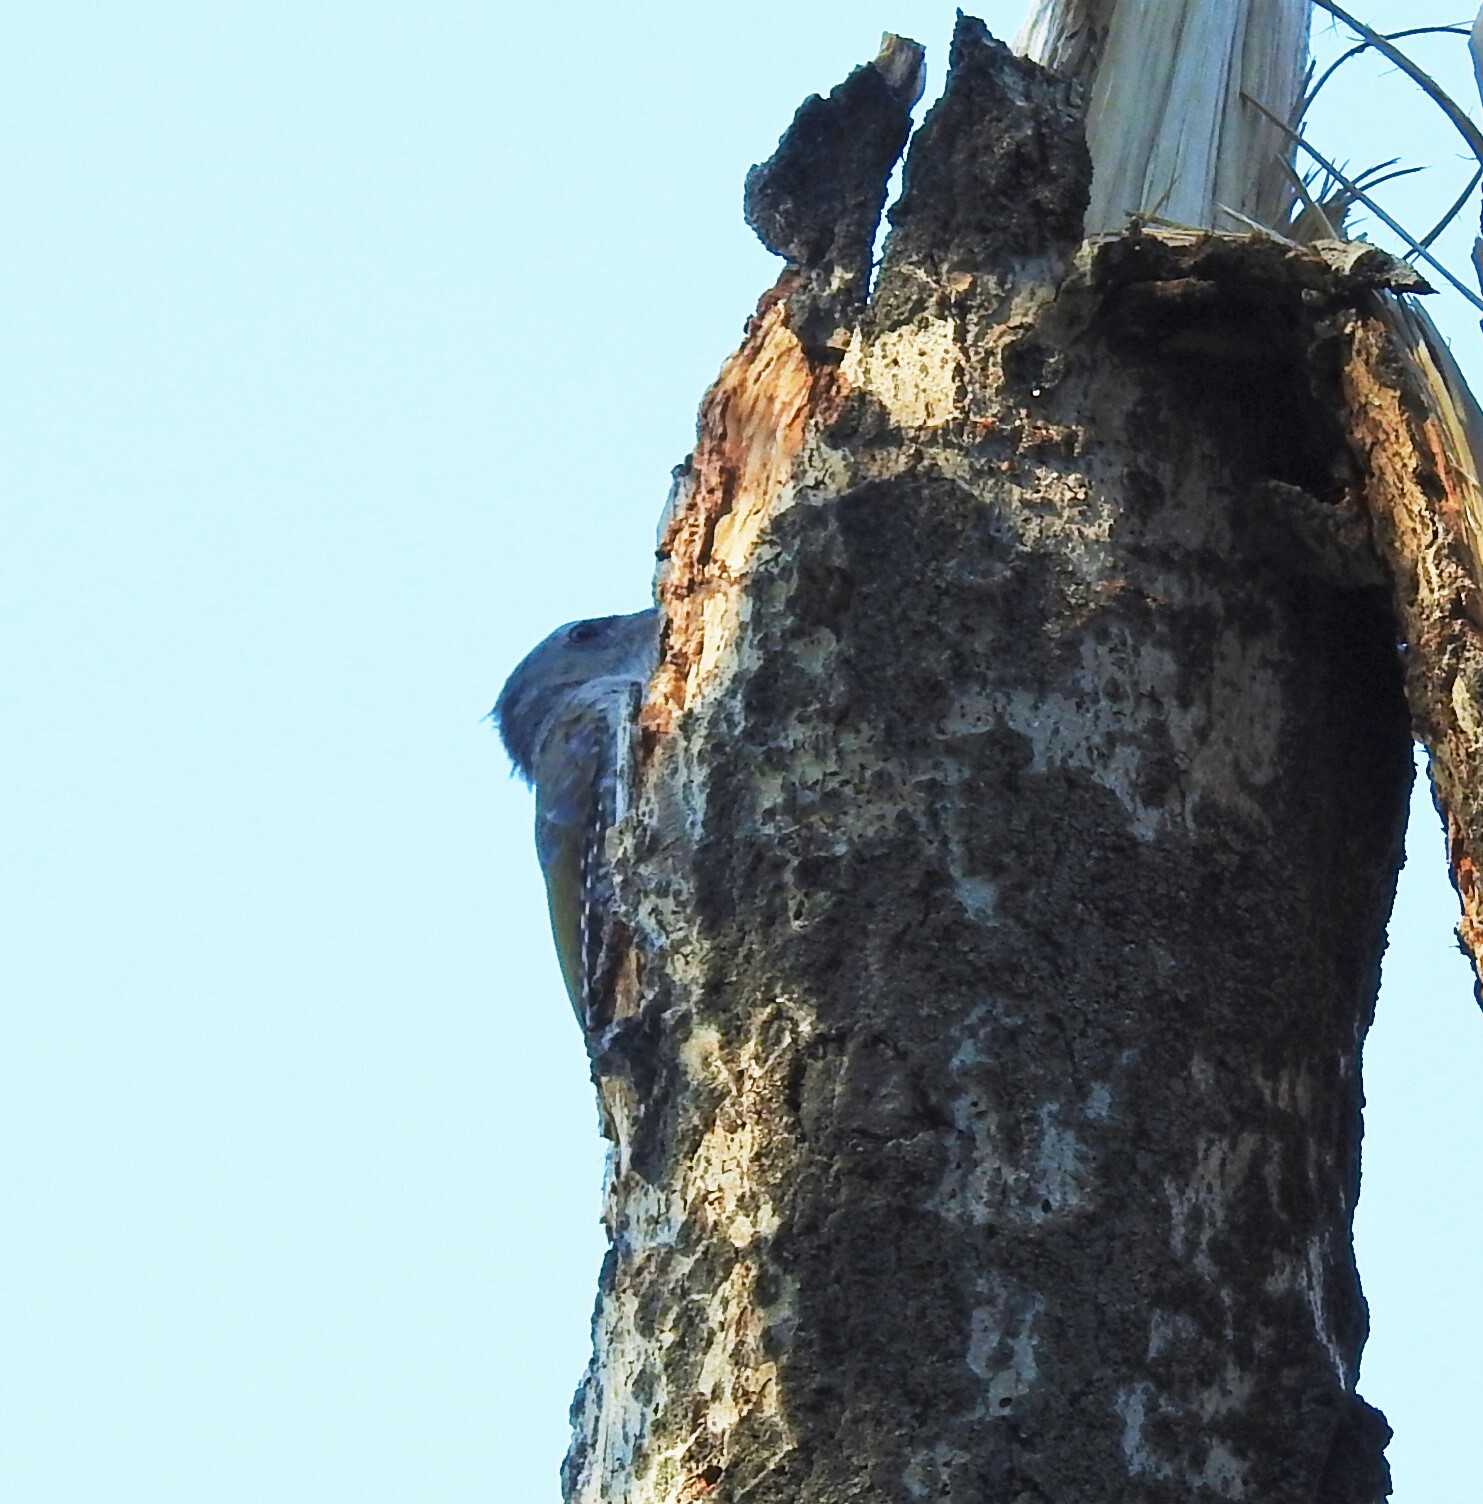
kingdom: Animalia
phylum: Chordata
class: Aves
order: Piciformes
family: Picidae
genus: Picus
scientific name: Picus canus
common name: Grey-headed woodpecker
